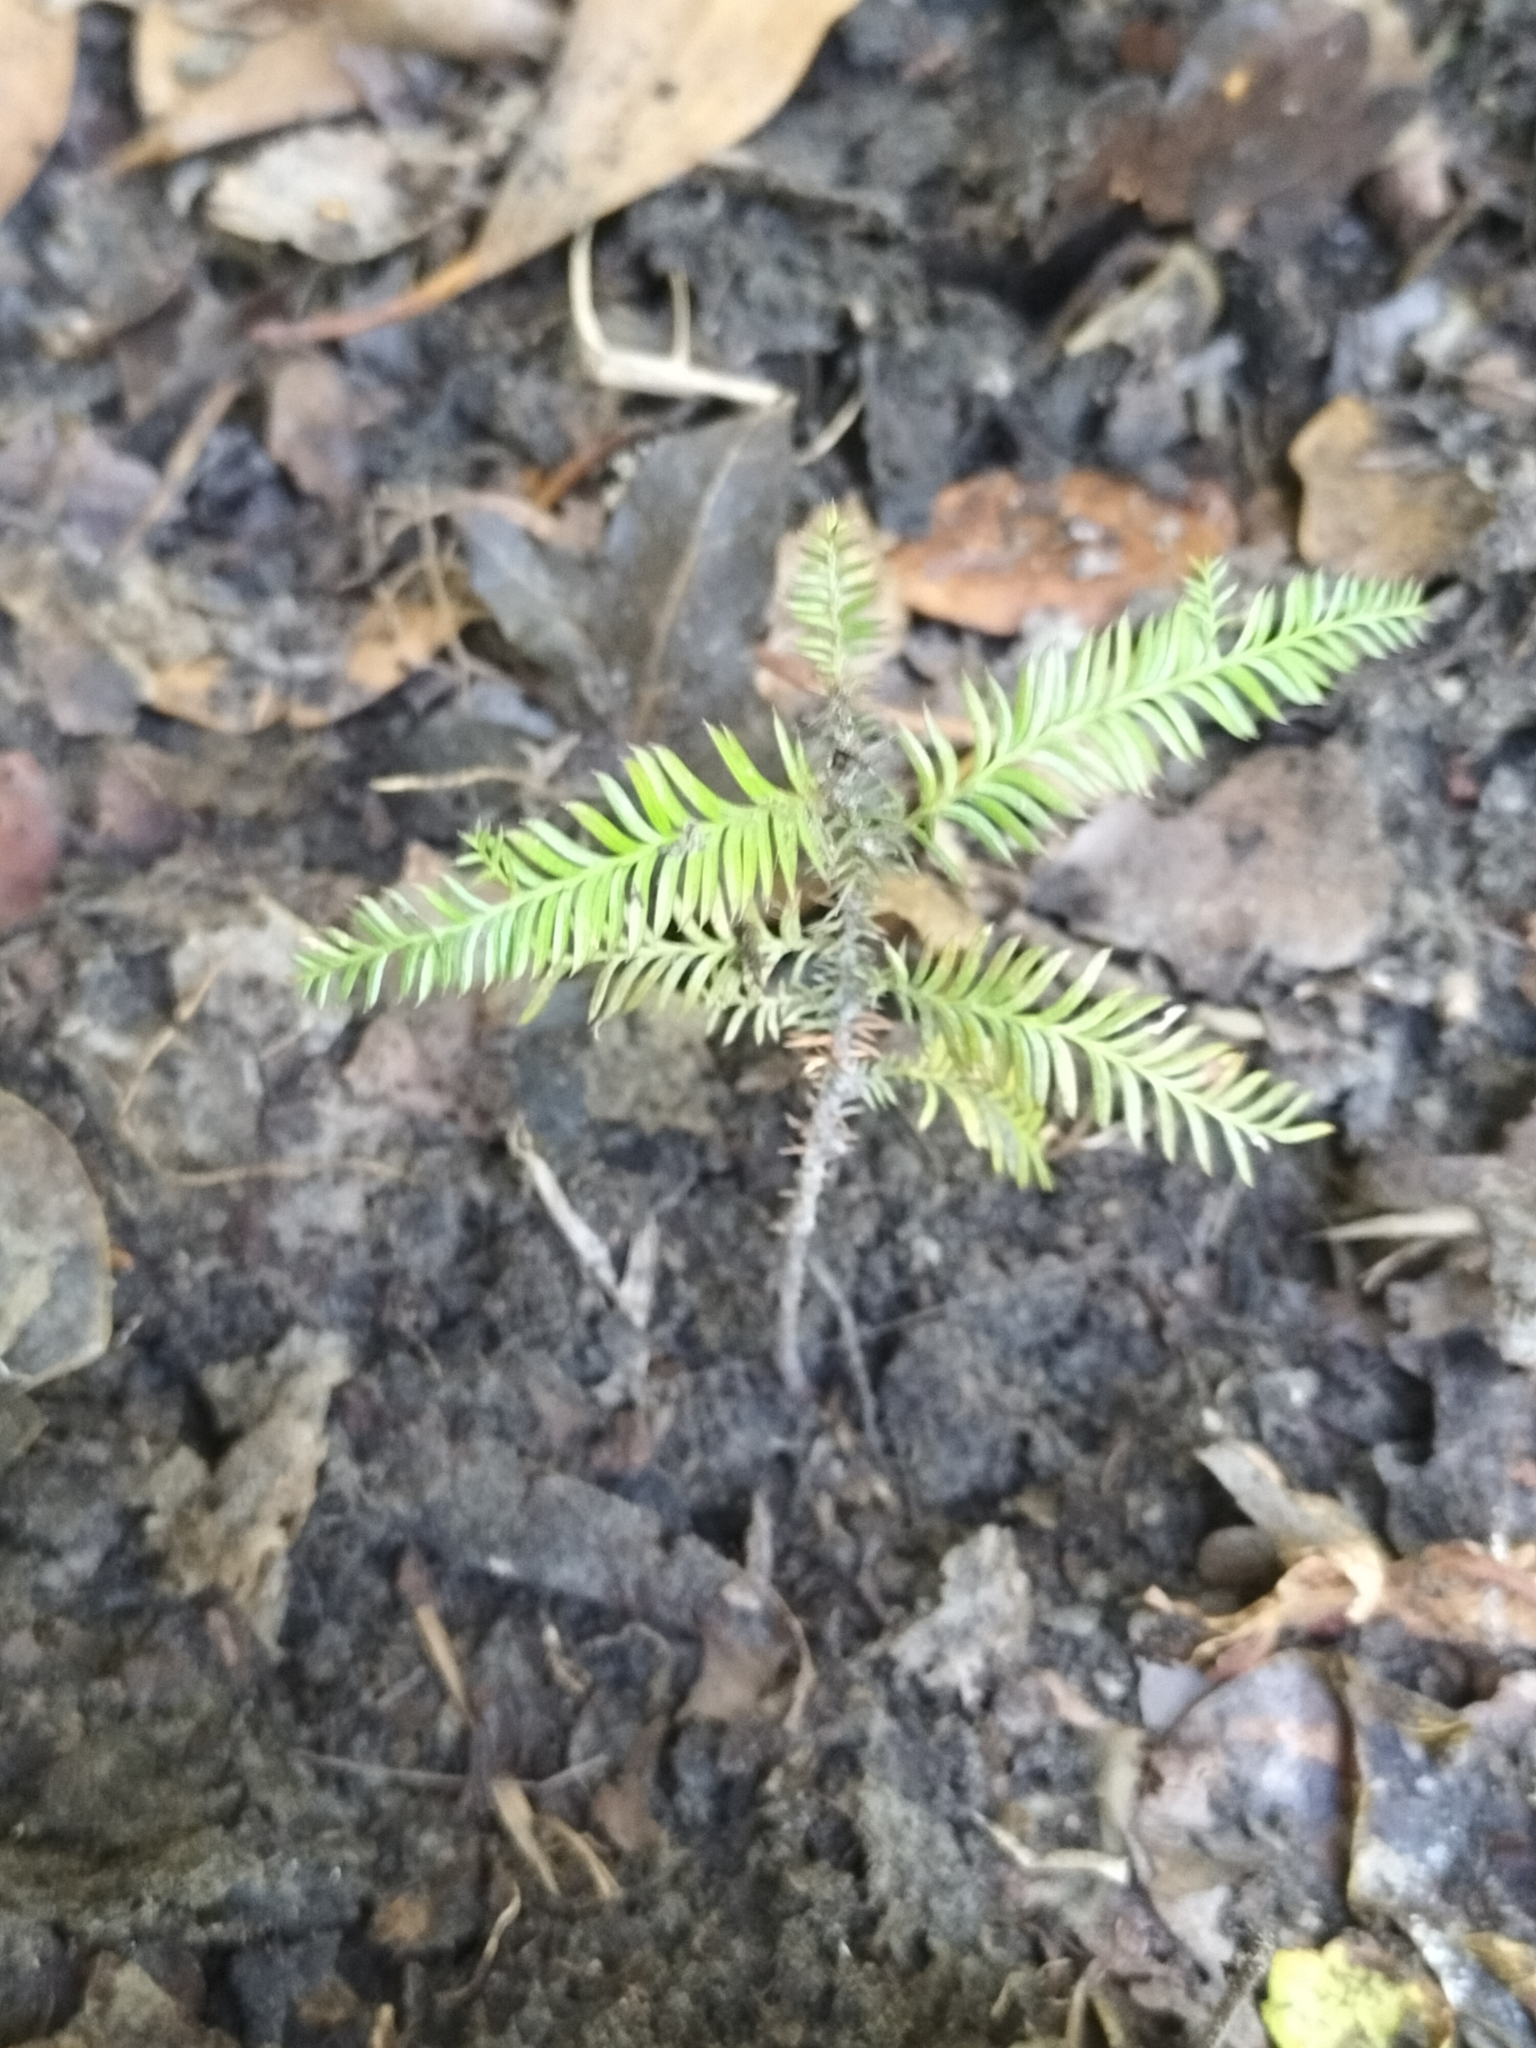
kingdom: Plantae
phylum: Tracheophyta
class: Pinopsida
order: Pinales
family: Podocarpaceae
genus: Dacrycarpus
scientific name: Dacrycarpus dacrydioides
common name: White pine
